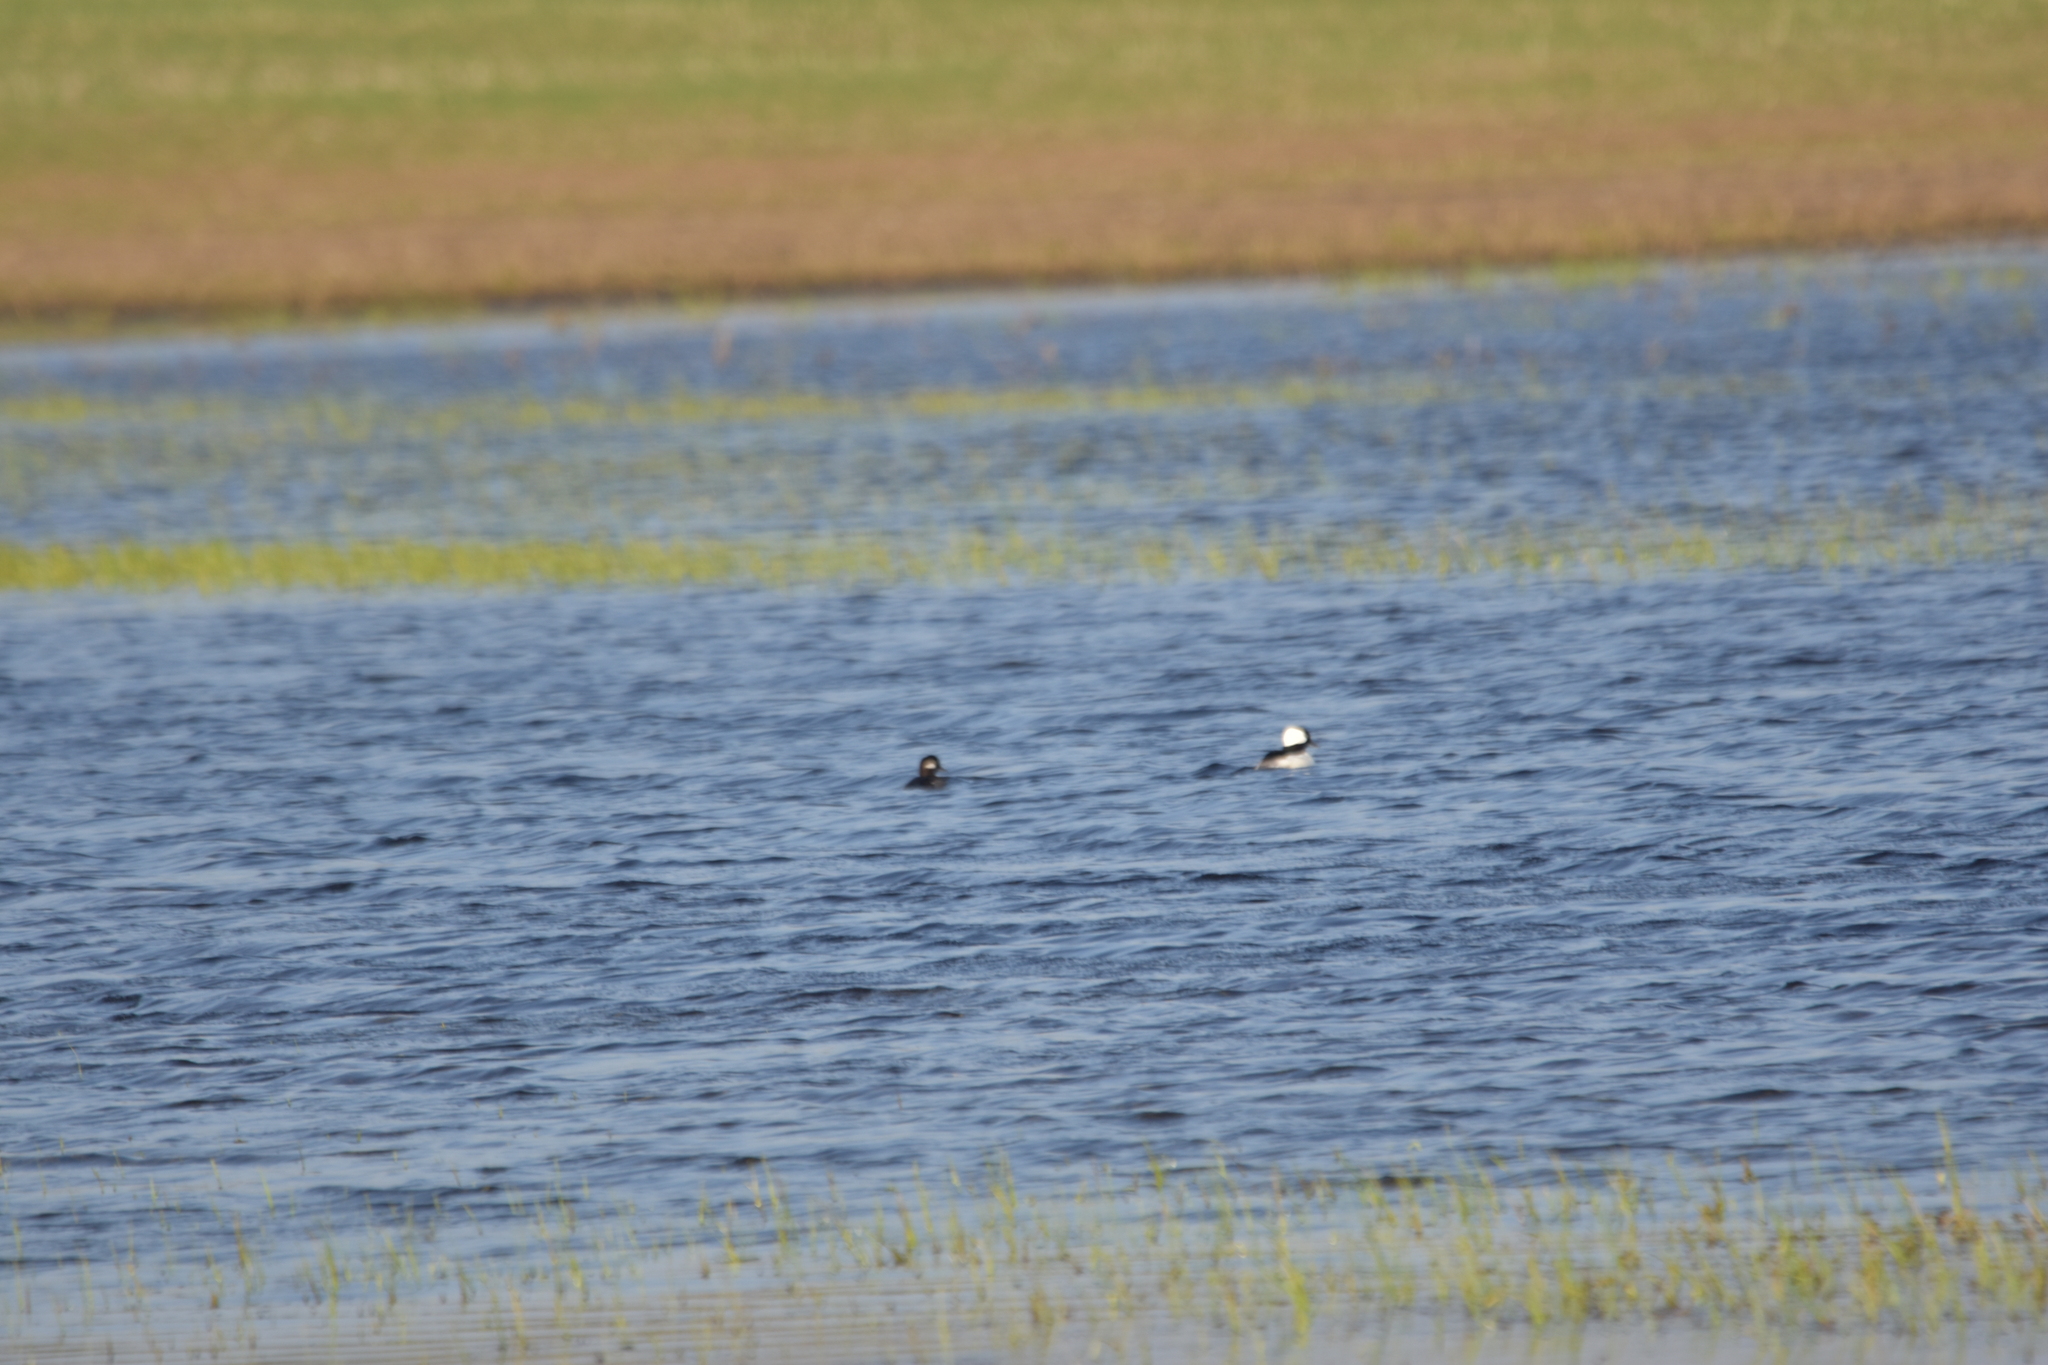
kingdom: Animalia
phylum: Chordata
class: Aves
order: Anseriformes
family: Anatidae
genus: Bucephala
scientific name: Bucephala albeola
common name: Bufflehead
